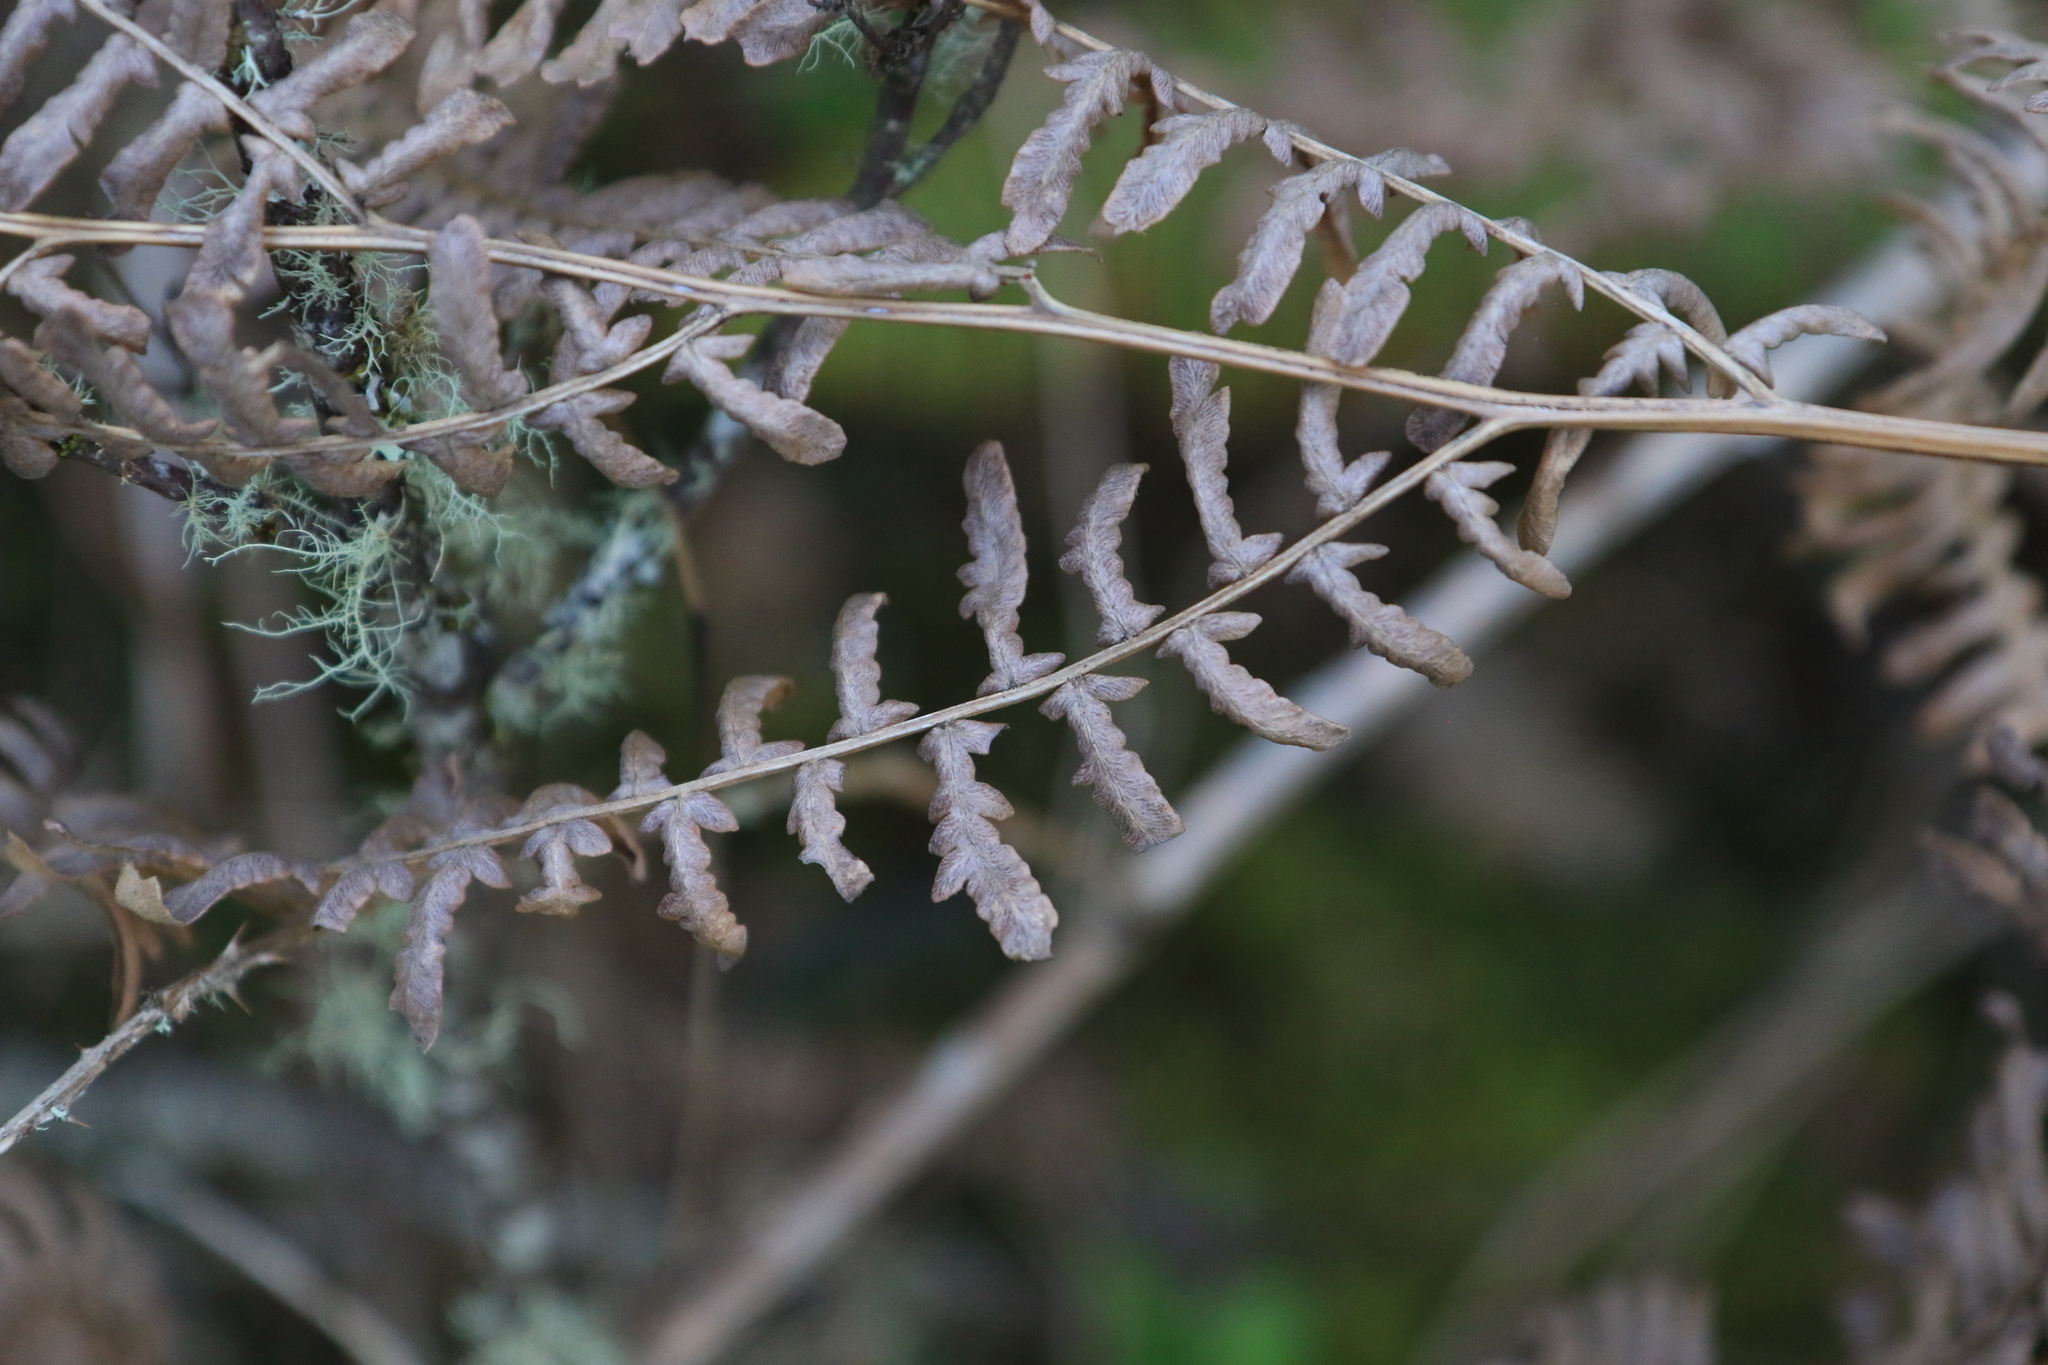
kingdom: Plantae
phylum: Tracheophyta
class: Polypodiopsida
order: Polypodiales
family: Dennstaedtiaceae
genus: Pteridium
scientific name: Pteridium aquilinum
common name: Bracken
